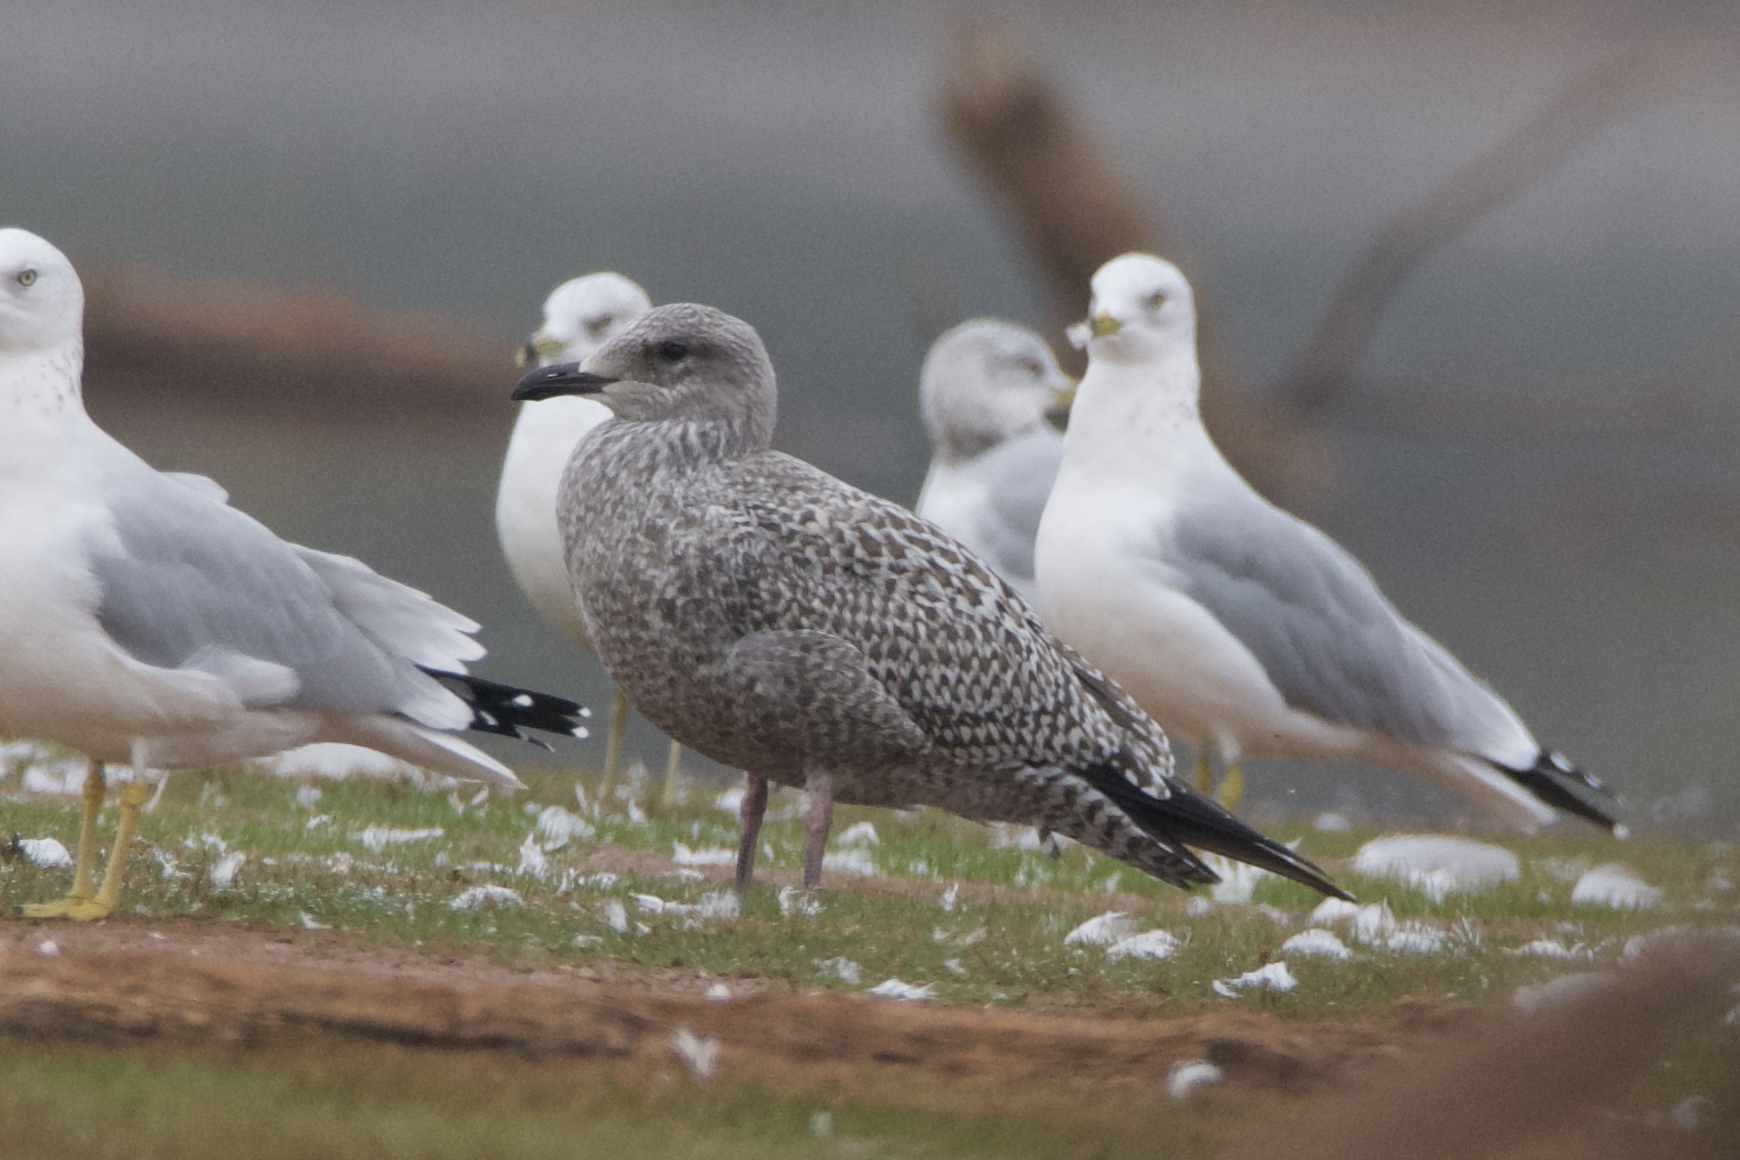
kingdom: Animalia
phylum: Chordata
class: Aves
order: Charadriiformes
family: Laridae
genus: Larus
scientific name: Larus argentatus
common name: Herring gull
